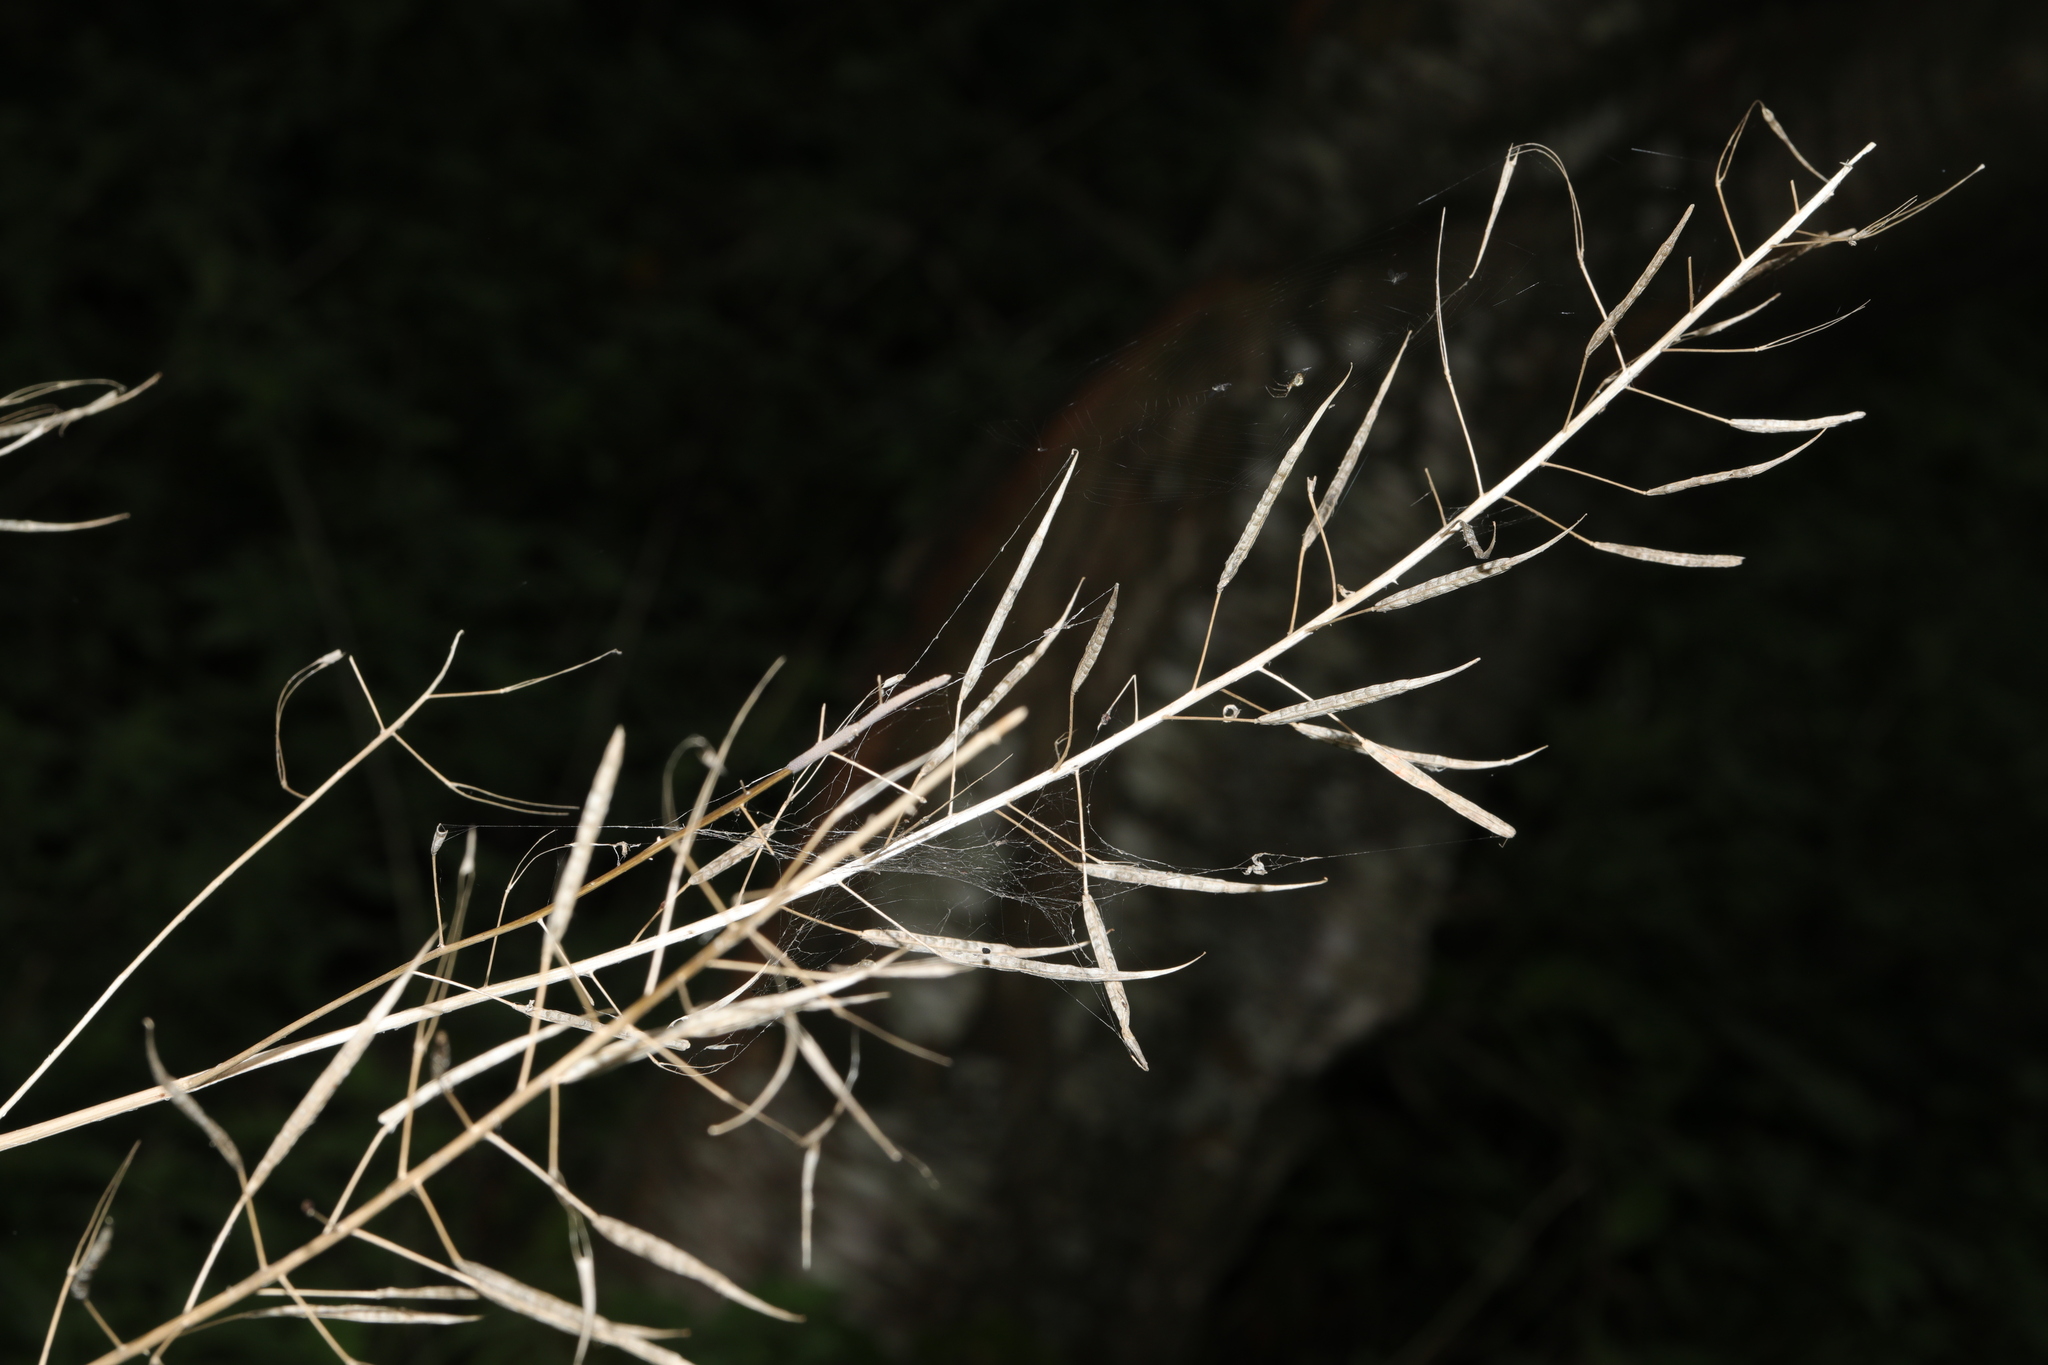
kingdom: Plantae
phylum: Tracheophyta
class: Magnoliopsida
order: Brassicales
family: Brassicaceae
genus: Alliaria
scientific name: Alliaria petiolata
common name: Garlic mustard
